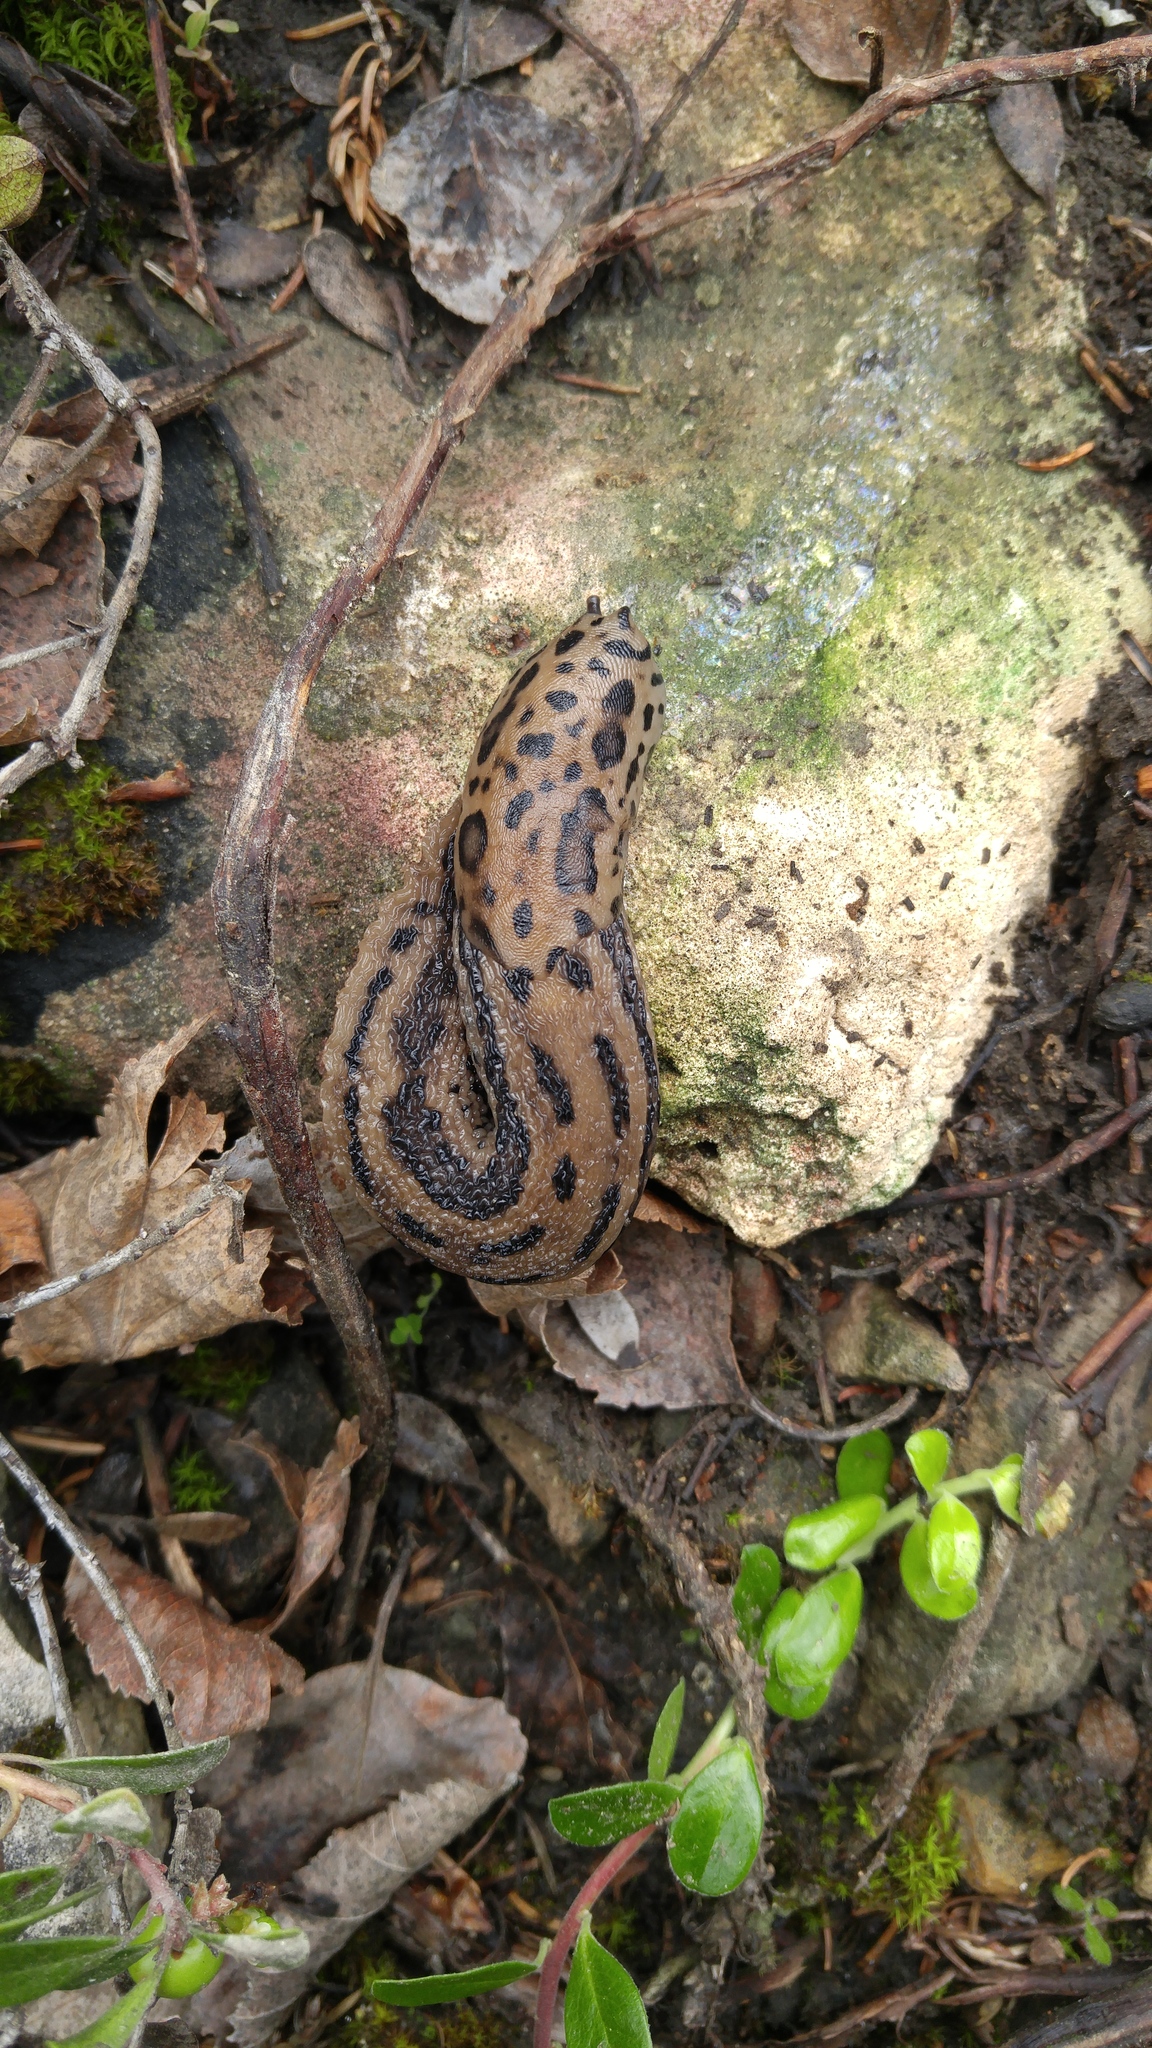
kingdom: Animalia
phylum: Mollusca
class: Gastropoda
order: Stylommatophora
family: Limacidae
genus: Limax
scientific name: Limax maximus
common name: Great grey slug
